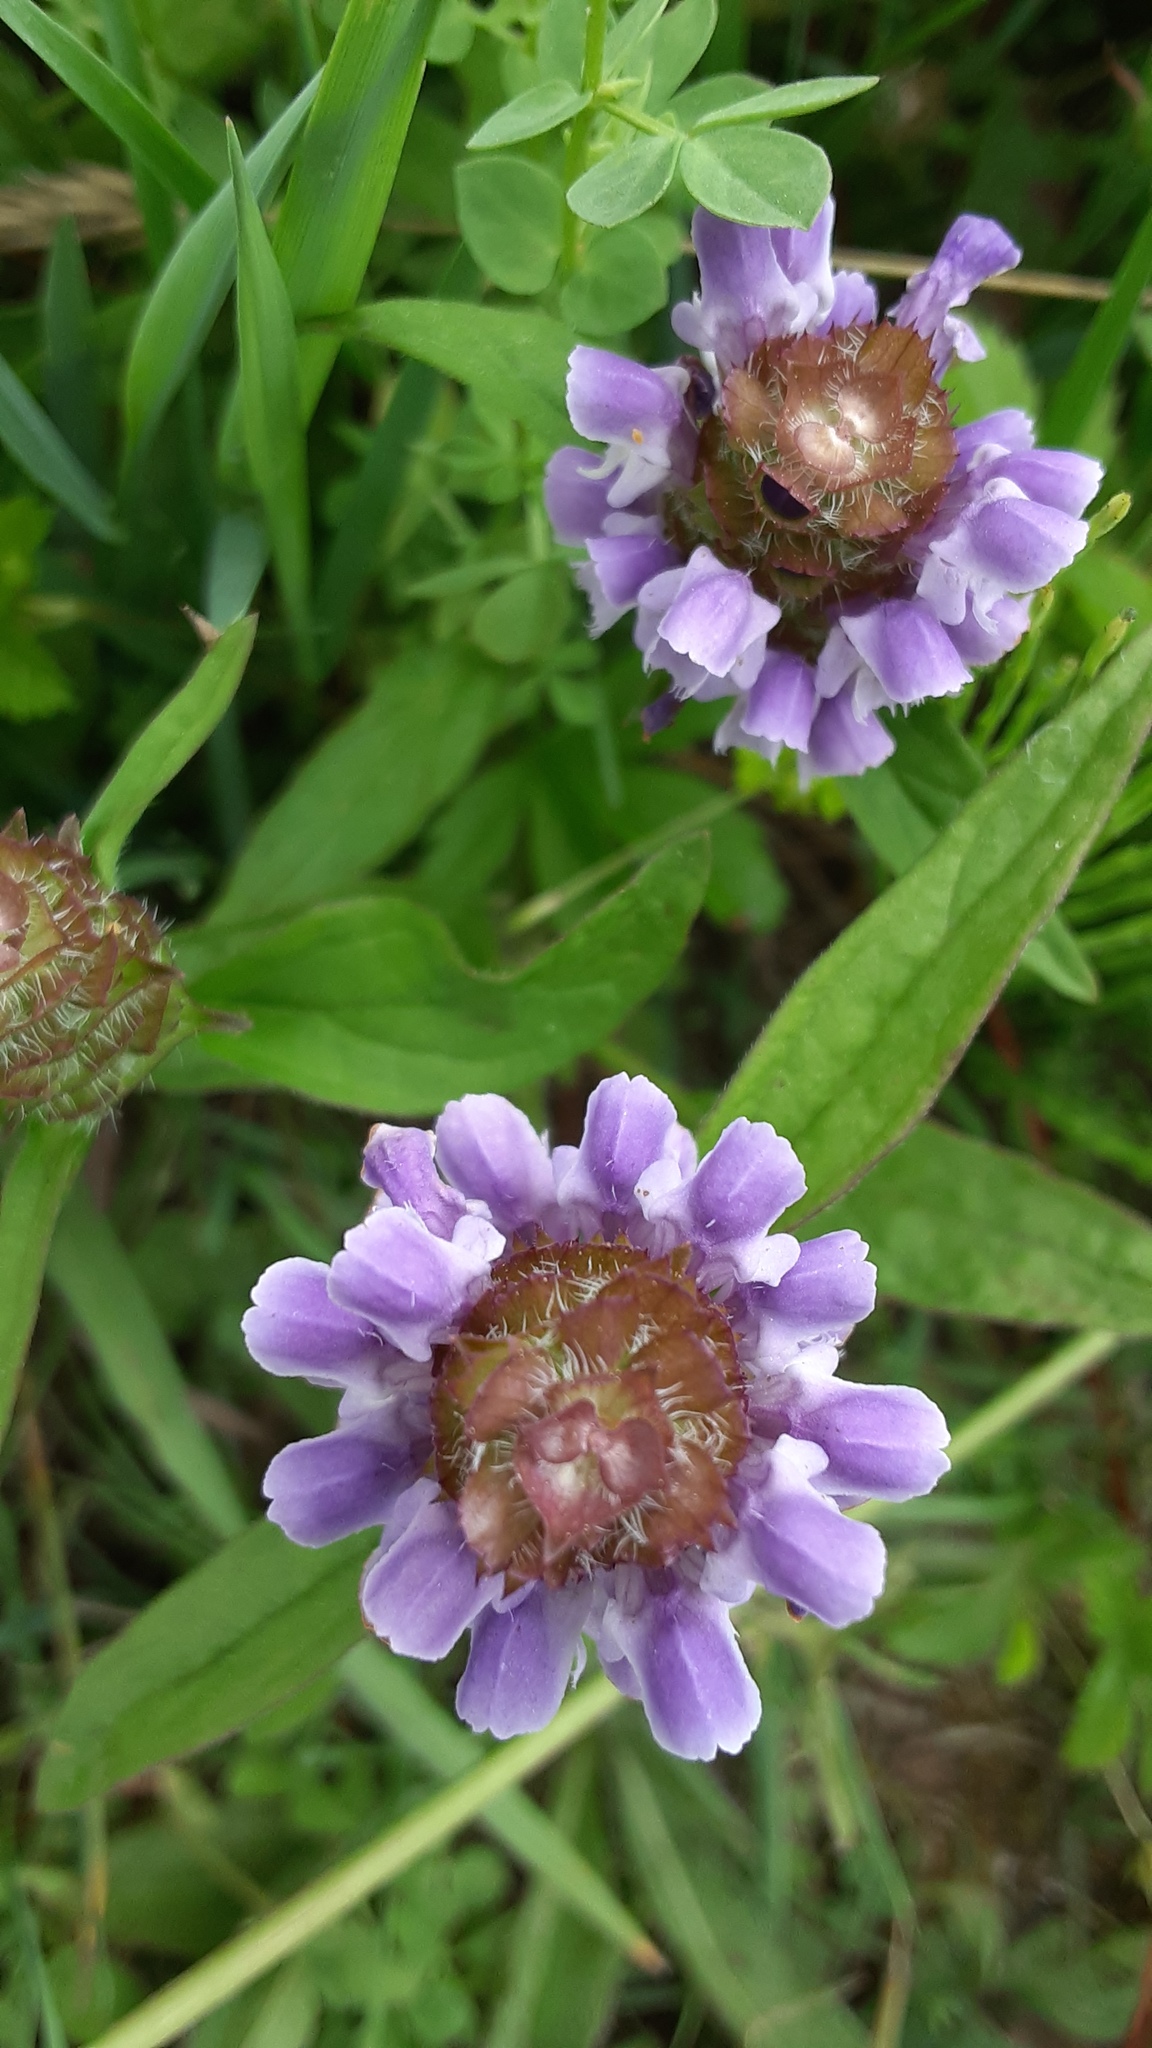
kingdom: Plantae
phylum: Tracheophyta
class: Magnoliopsida
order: Lamiales
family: Lamiaceae
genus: Prunella
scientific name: Prunella vulgaris
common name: Heal-all
